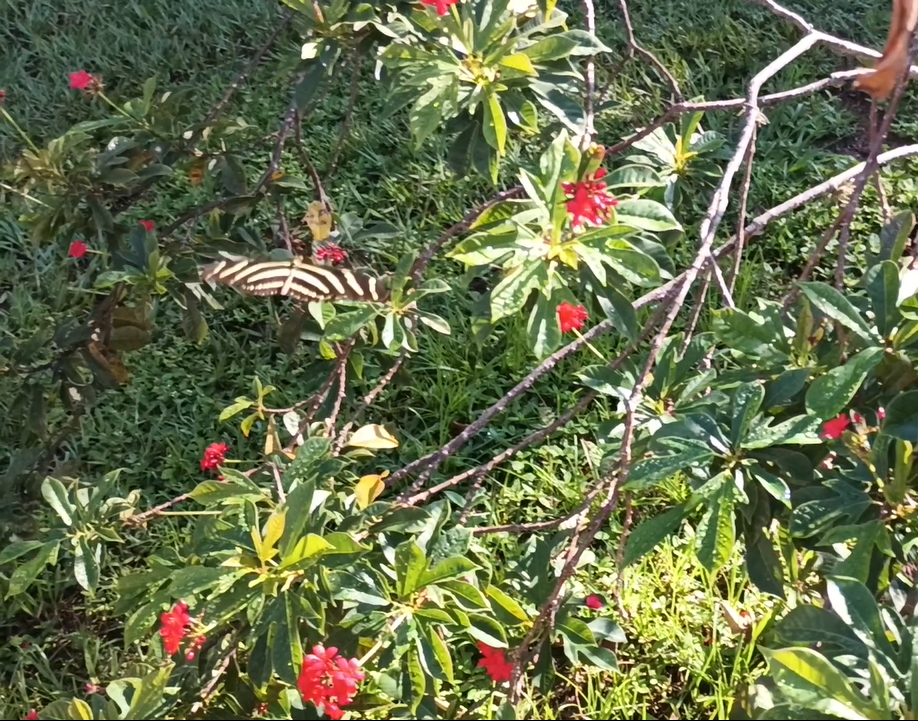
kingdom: Animalia
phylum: Arthropoda
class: Insecta
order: Lepidoptera
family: Nymphalidae
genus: Heliconius
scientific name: Heliconius charithonia
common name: Zebra long wing
